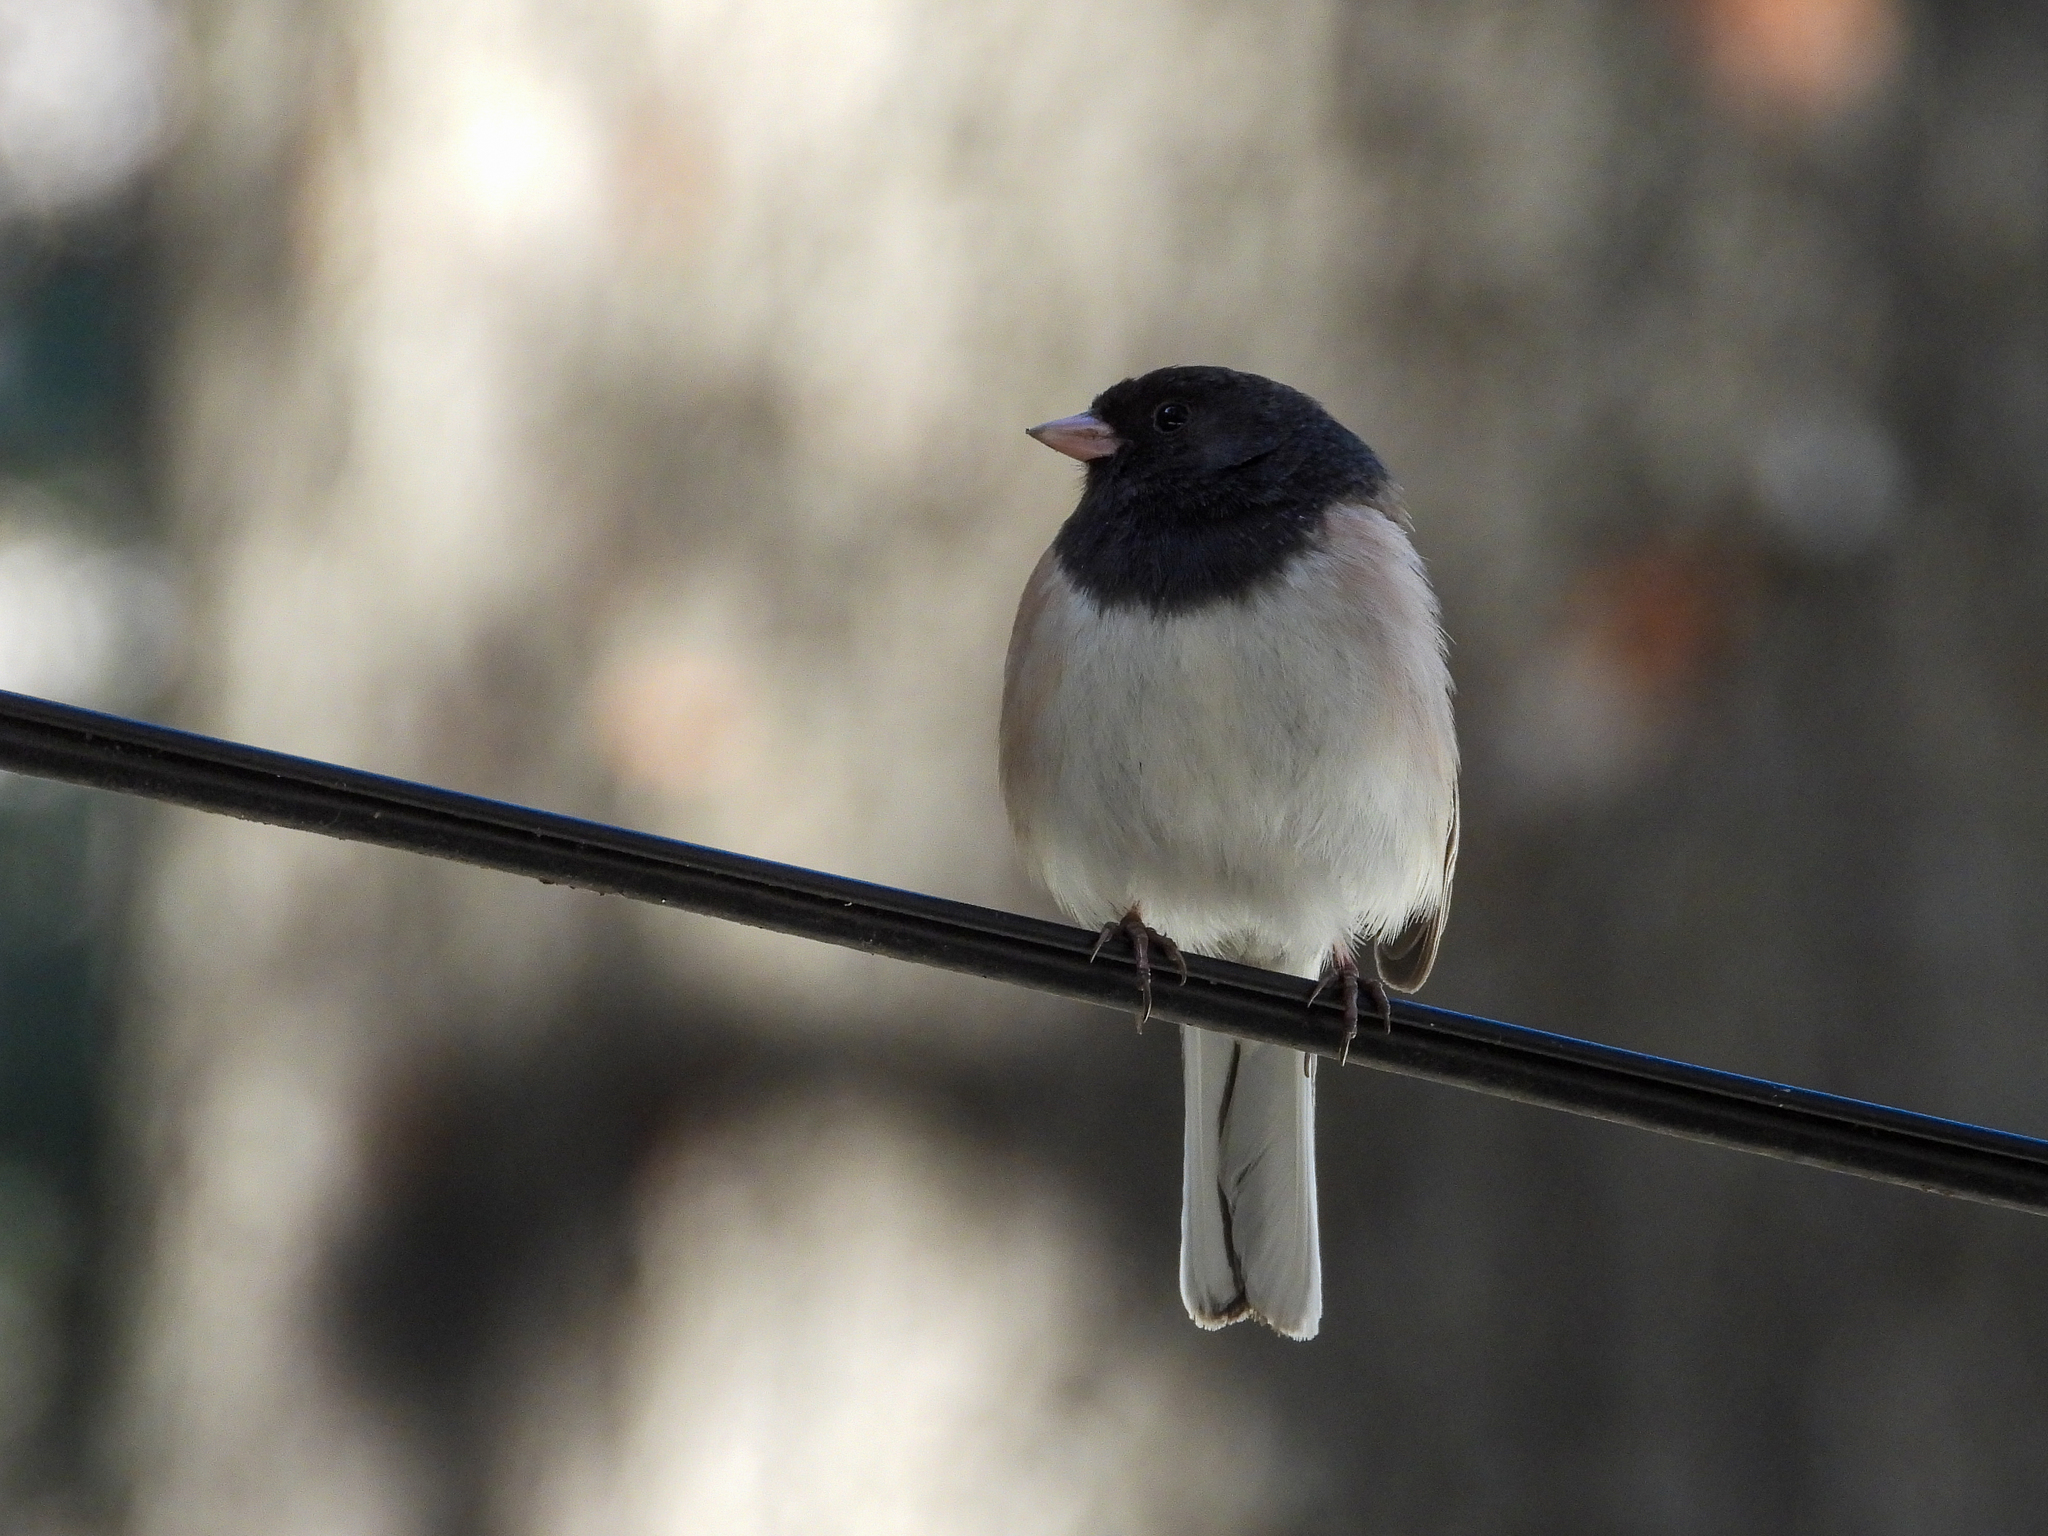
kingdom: Animalia
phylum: Chordata
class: Aves
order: Passeriformes
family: Passerellidae
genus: Junco
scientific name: Junco hyemalis
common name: Dark-eyed junco
